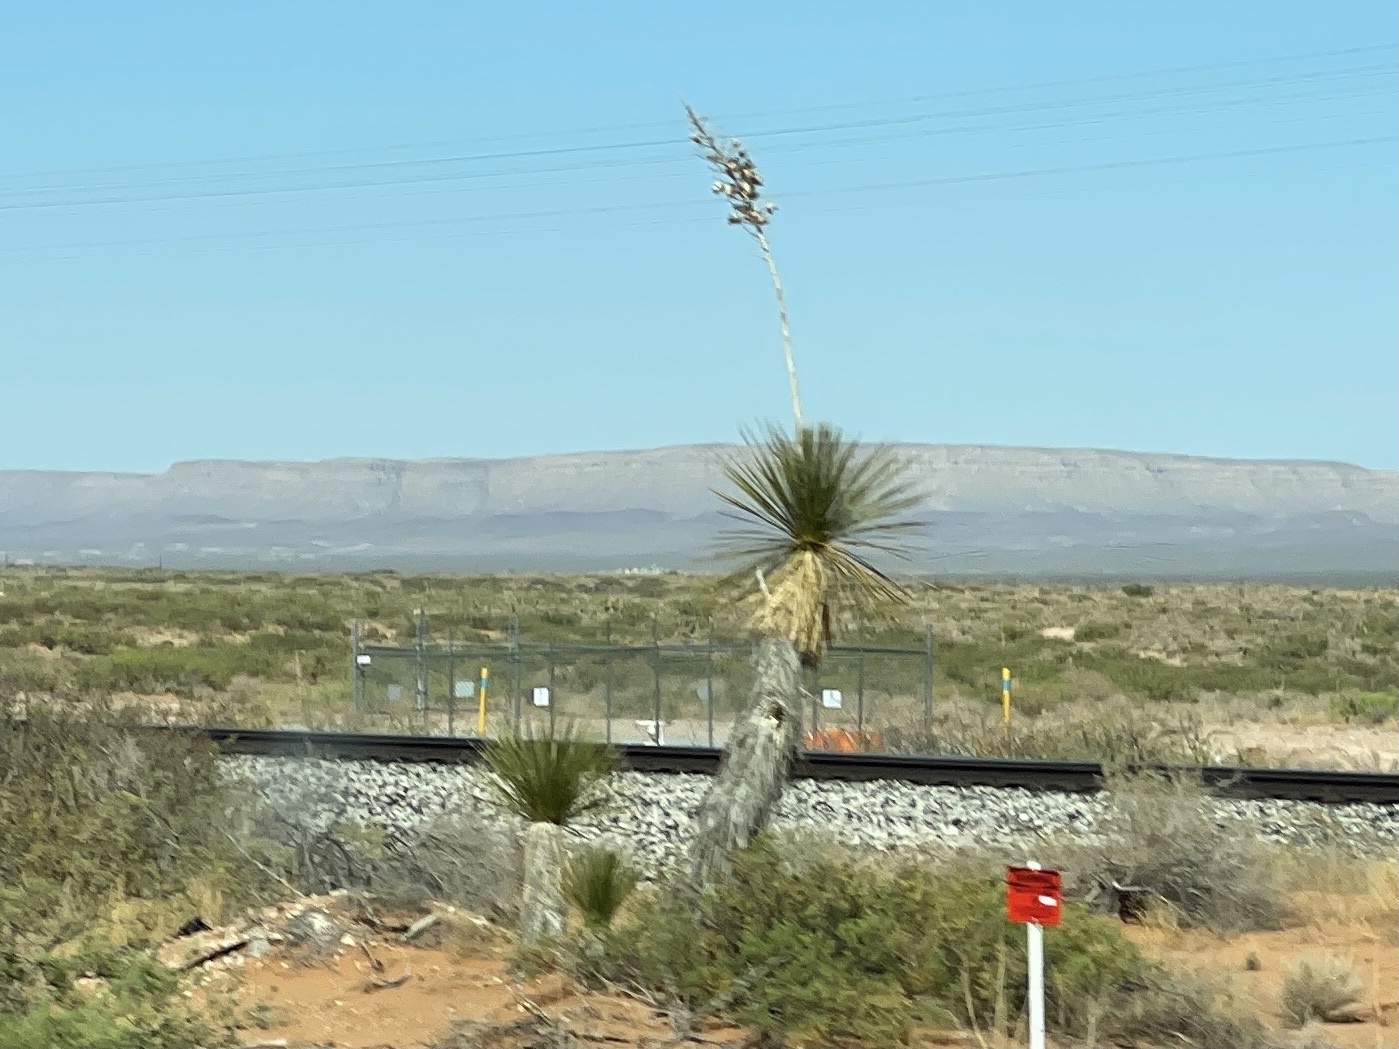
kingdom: Plantae
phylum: Tracheophyta
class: Liliopsida
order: Asparagales
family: Asparagaceae
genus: Yucca
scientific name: Yucca elata
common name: Palmella
